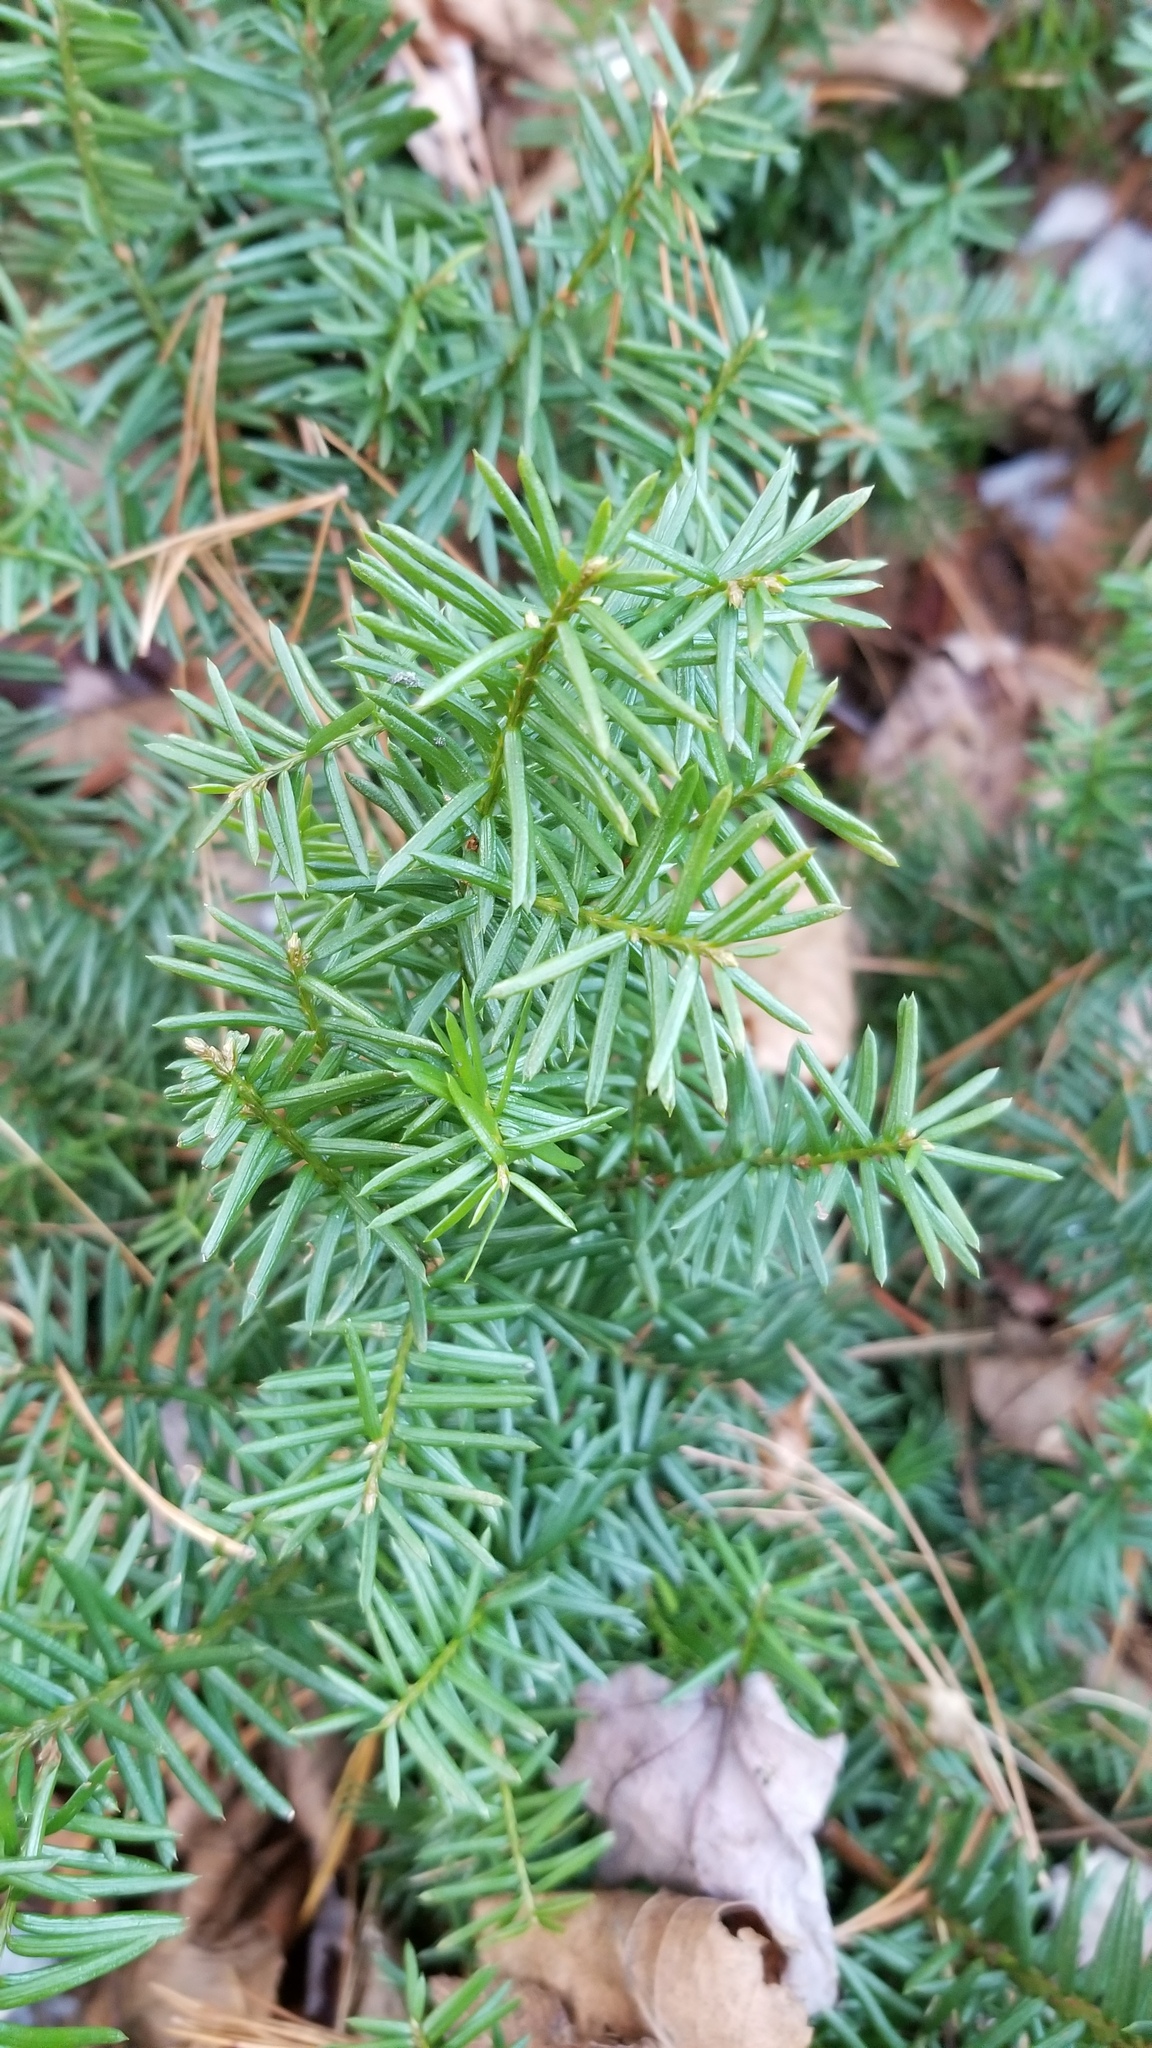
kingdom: Plantae
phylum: Tracheophyta
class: Pinopsida
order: Pinales
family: Taxaceae
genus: Taxus
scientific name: Taxus canadensis
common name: American yew
